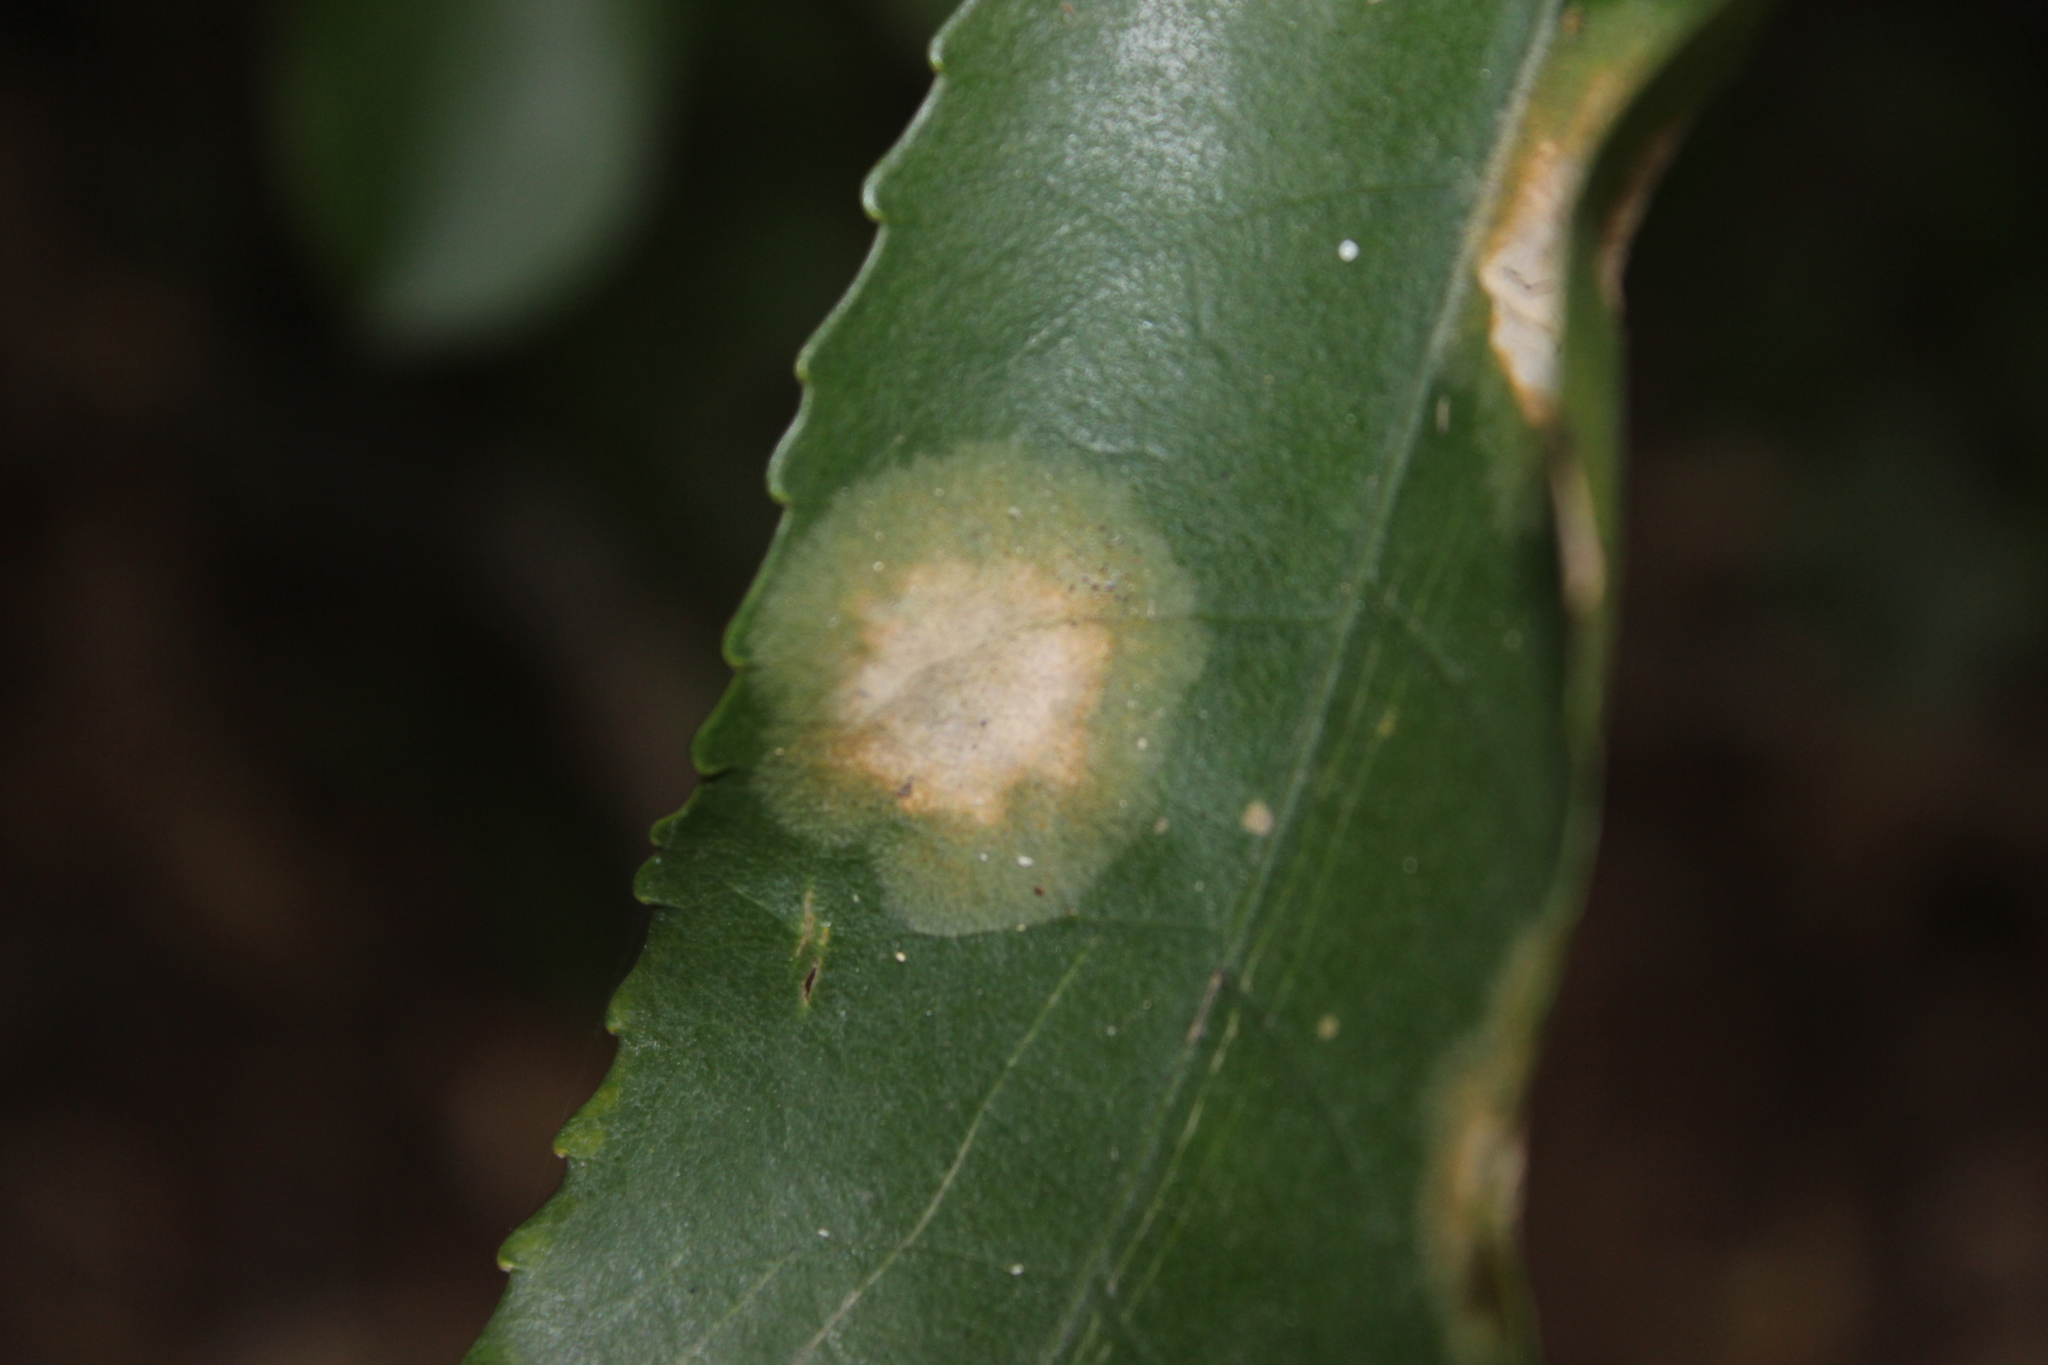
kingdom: Plantae
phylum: Chlorophyta
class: Ulvophyceae
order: Trentepohliales
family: Trentepohliaceae
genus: Cephaleuros
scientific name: Cephaleuros
